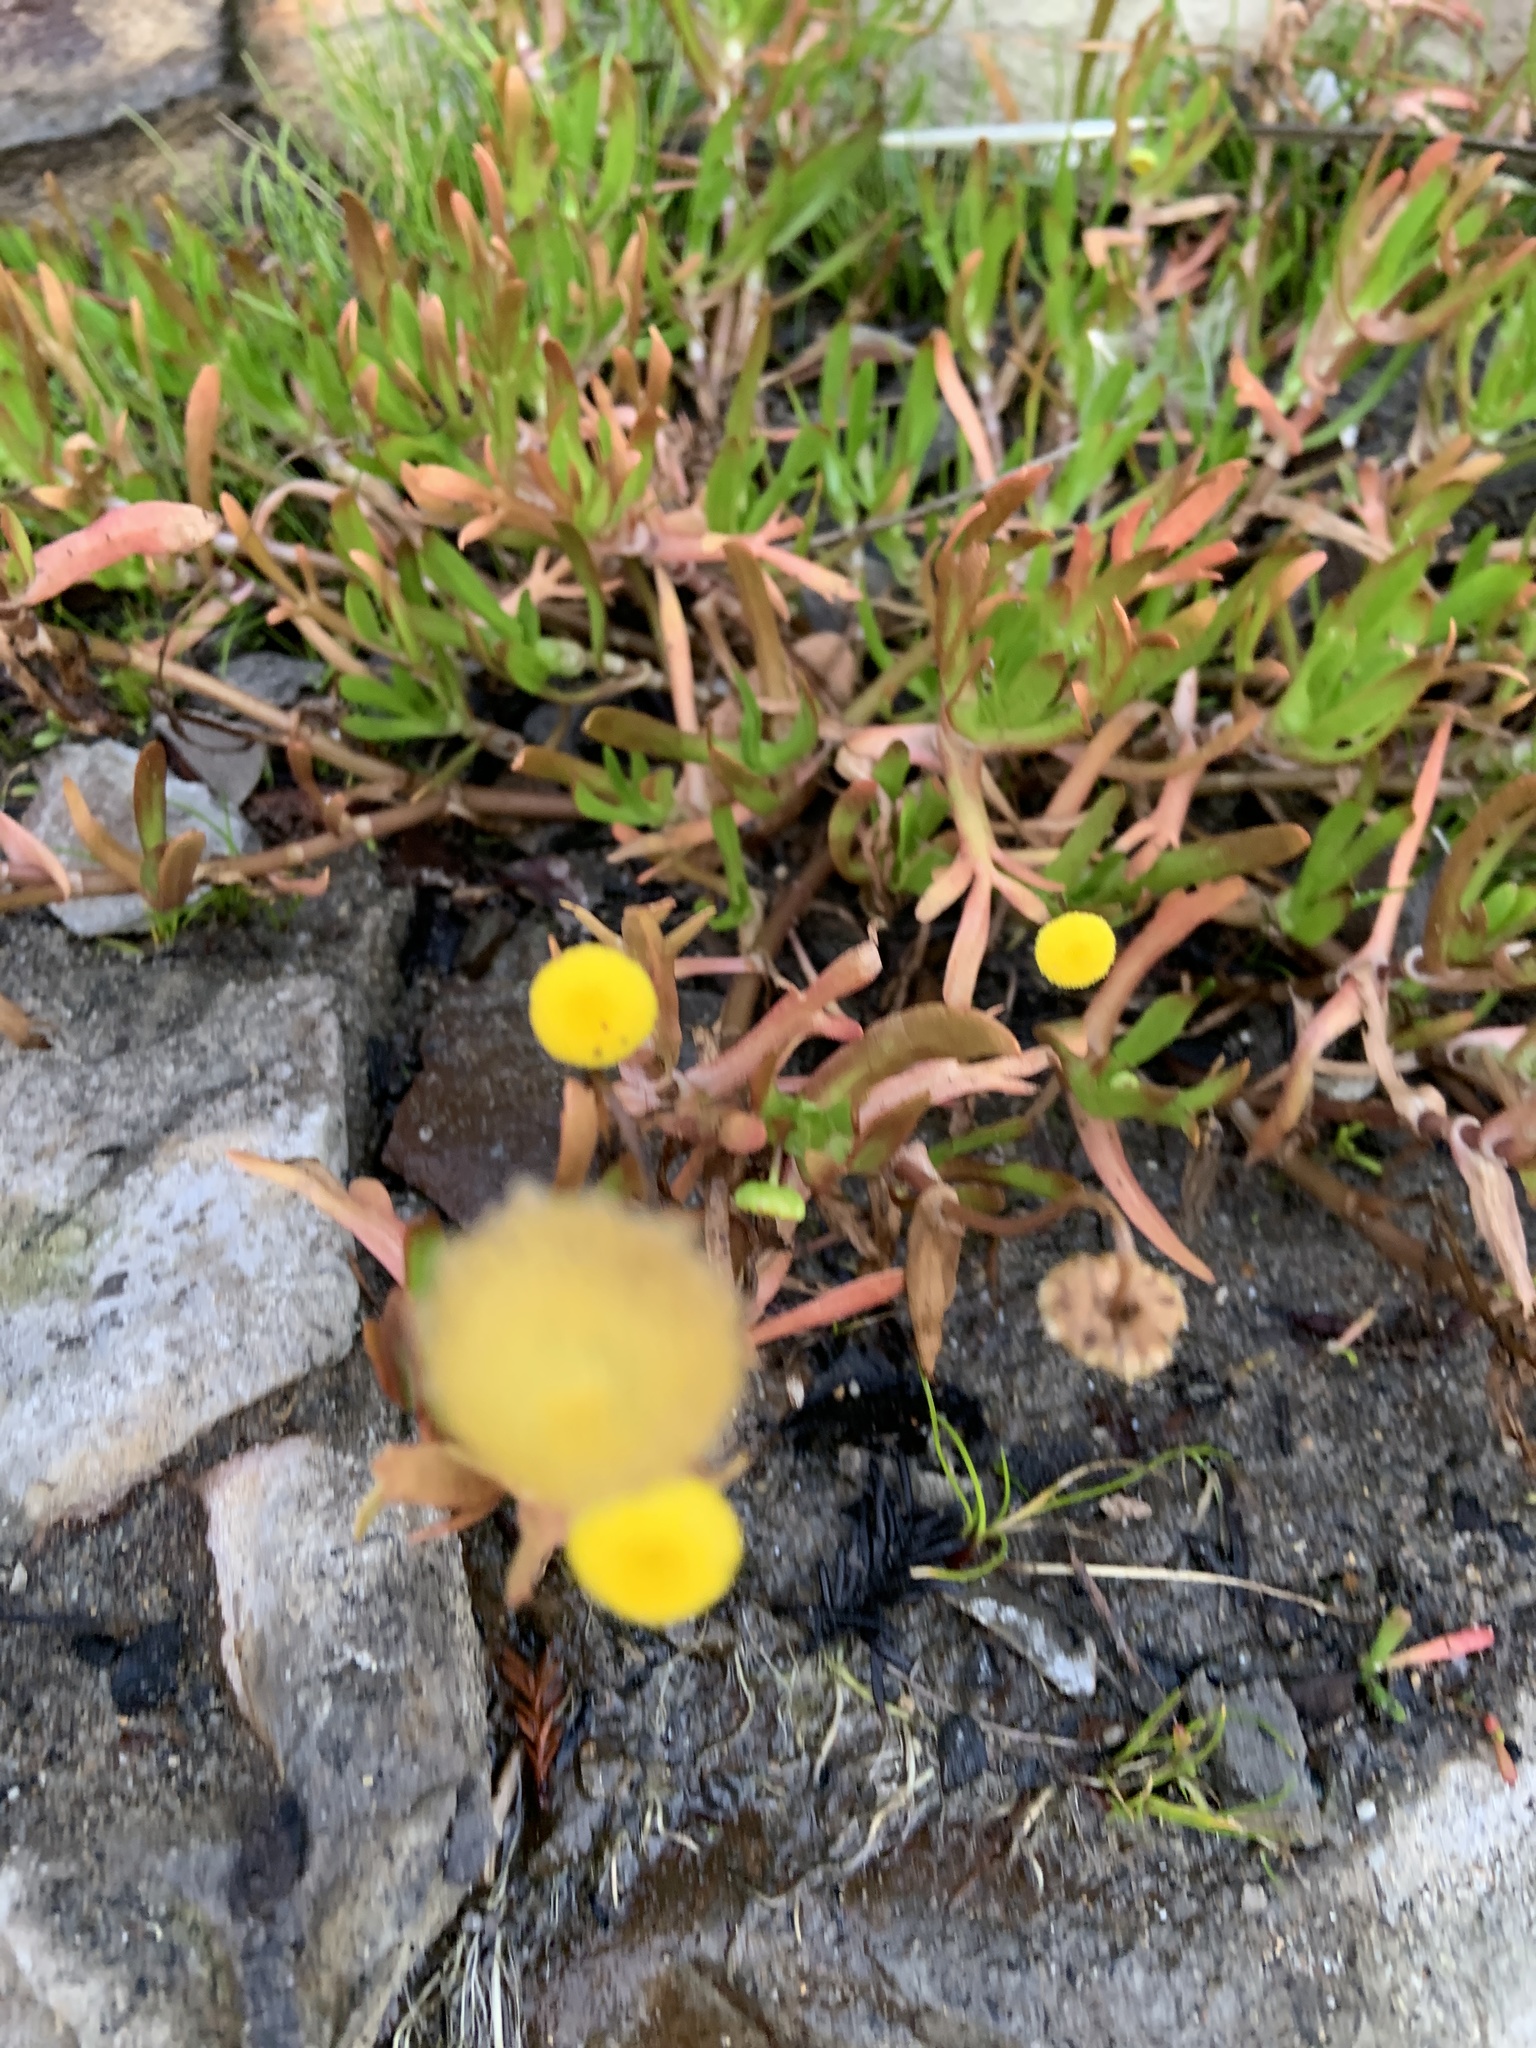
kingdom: Plantae
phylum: Tracheophyta
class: Magnoliopsida
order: Asterales
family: Asteraceae
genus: Cotula
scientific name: Cotula coronopifolia
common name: Buttonweed
